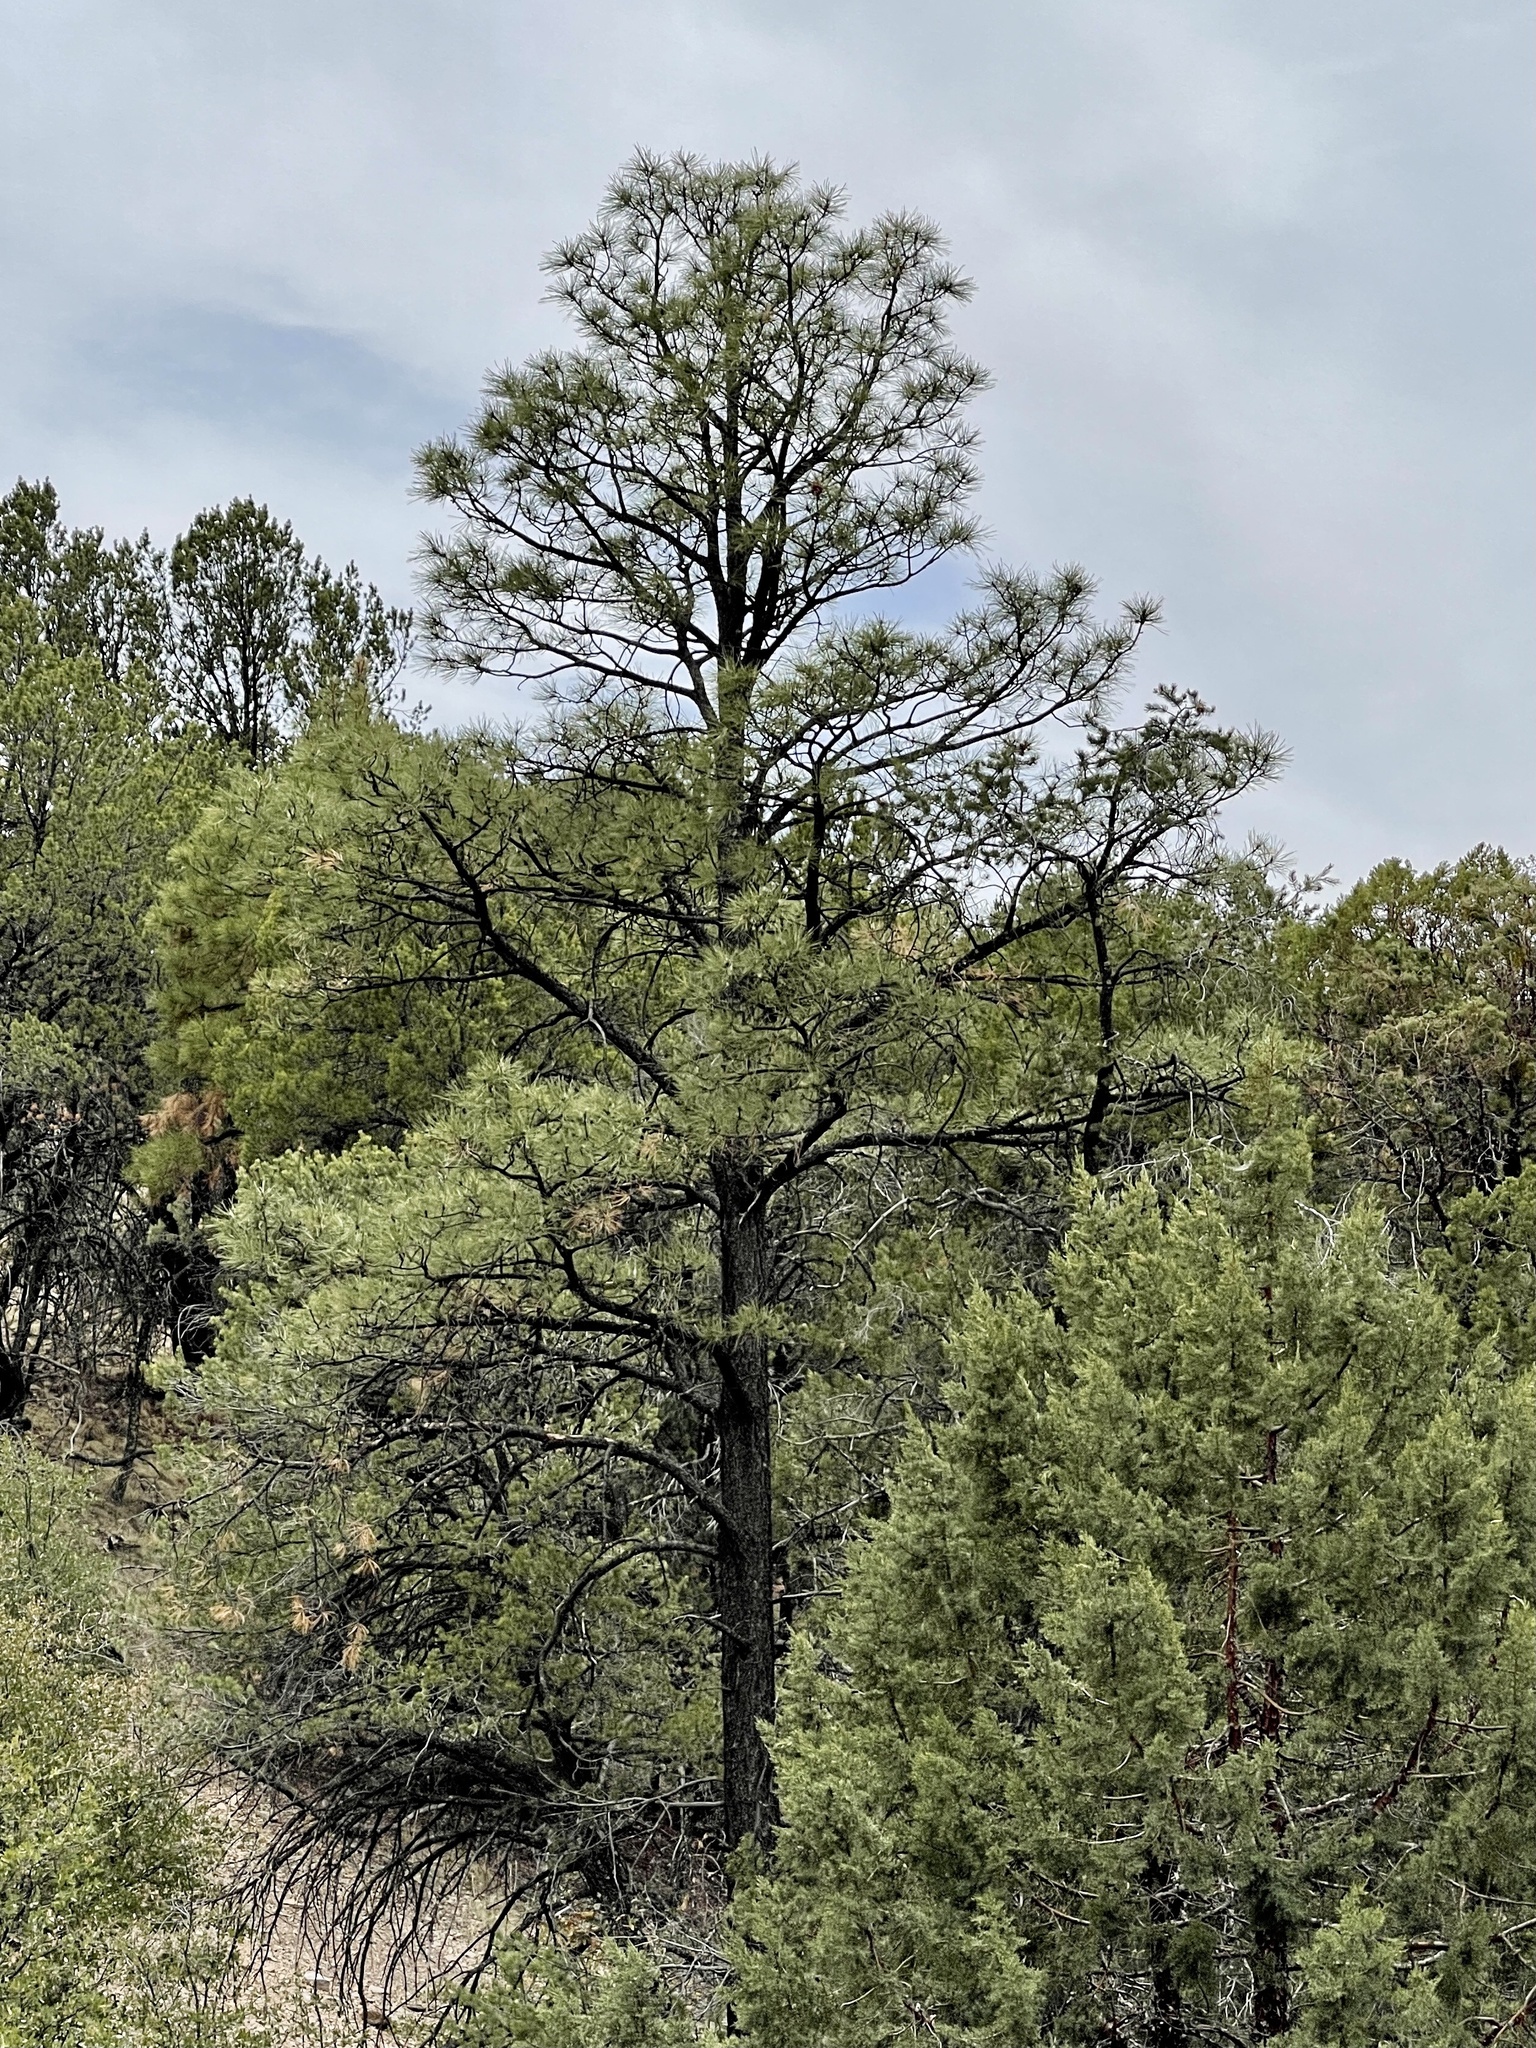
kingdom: Plantae
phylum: Tracheophyta
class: Pinopsida
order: Pinales
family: Pinaceae
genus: Pinus
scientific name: Pinus ponderosa
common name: Western yellow-pine
